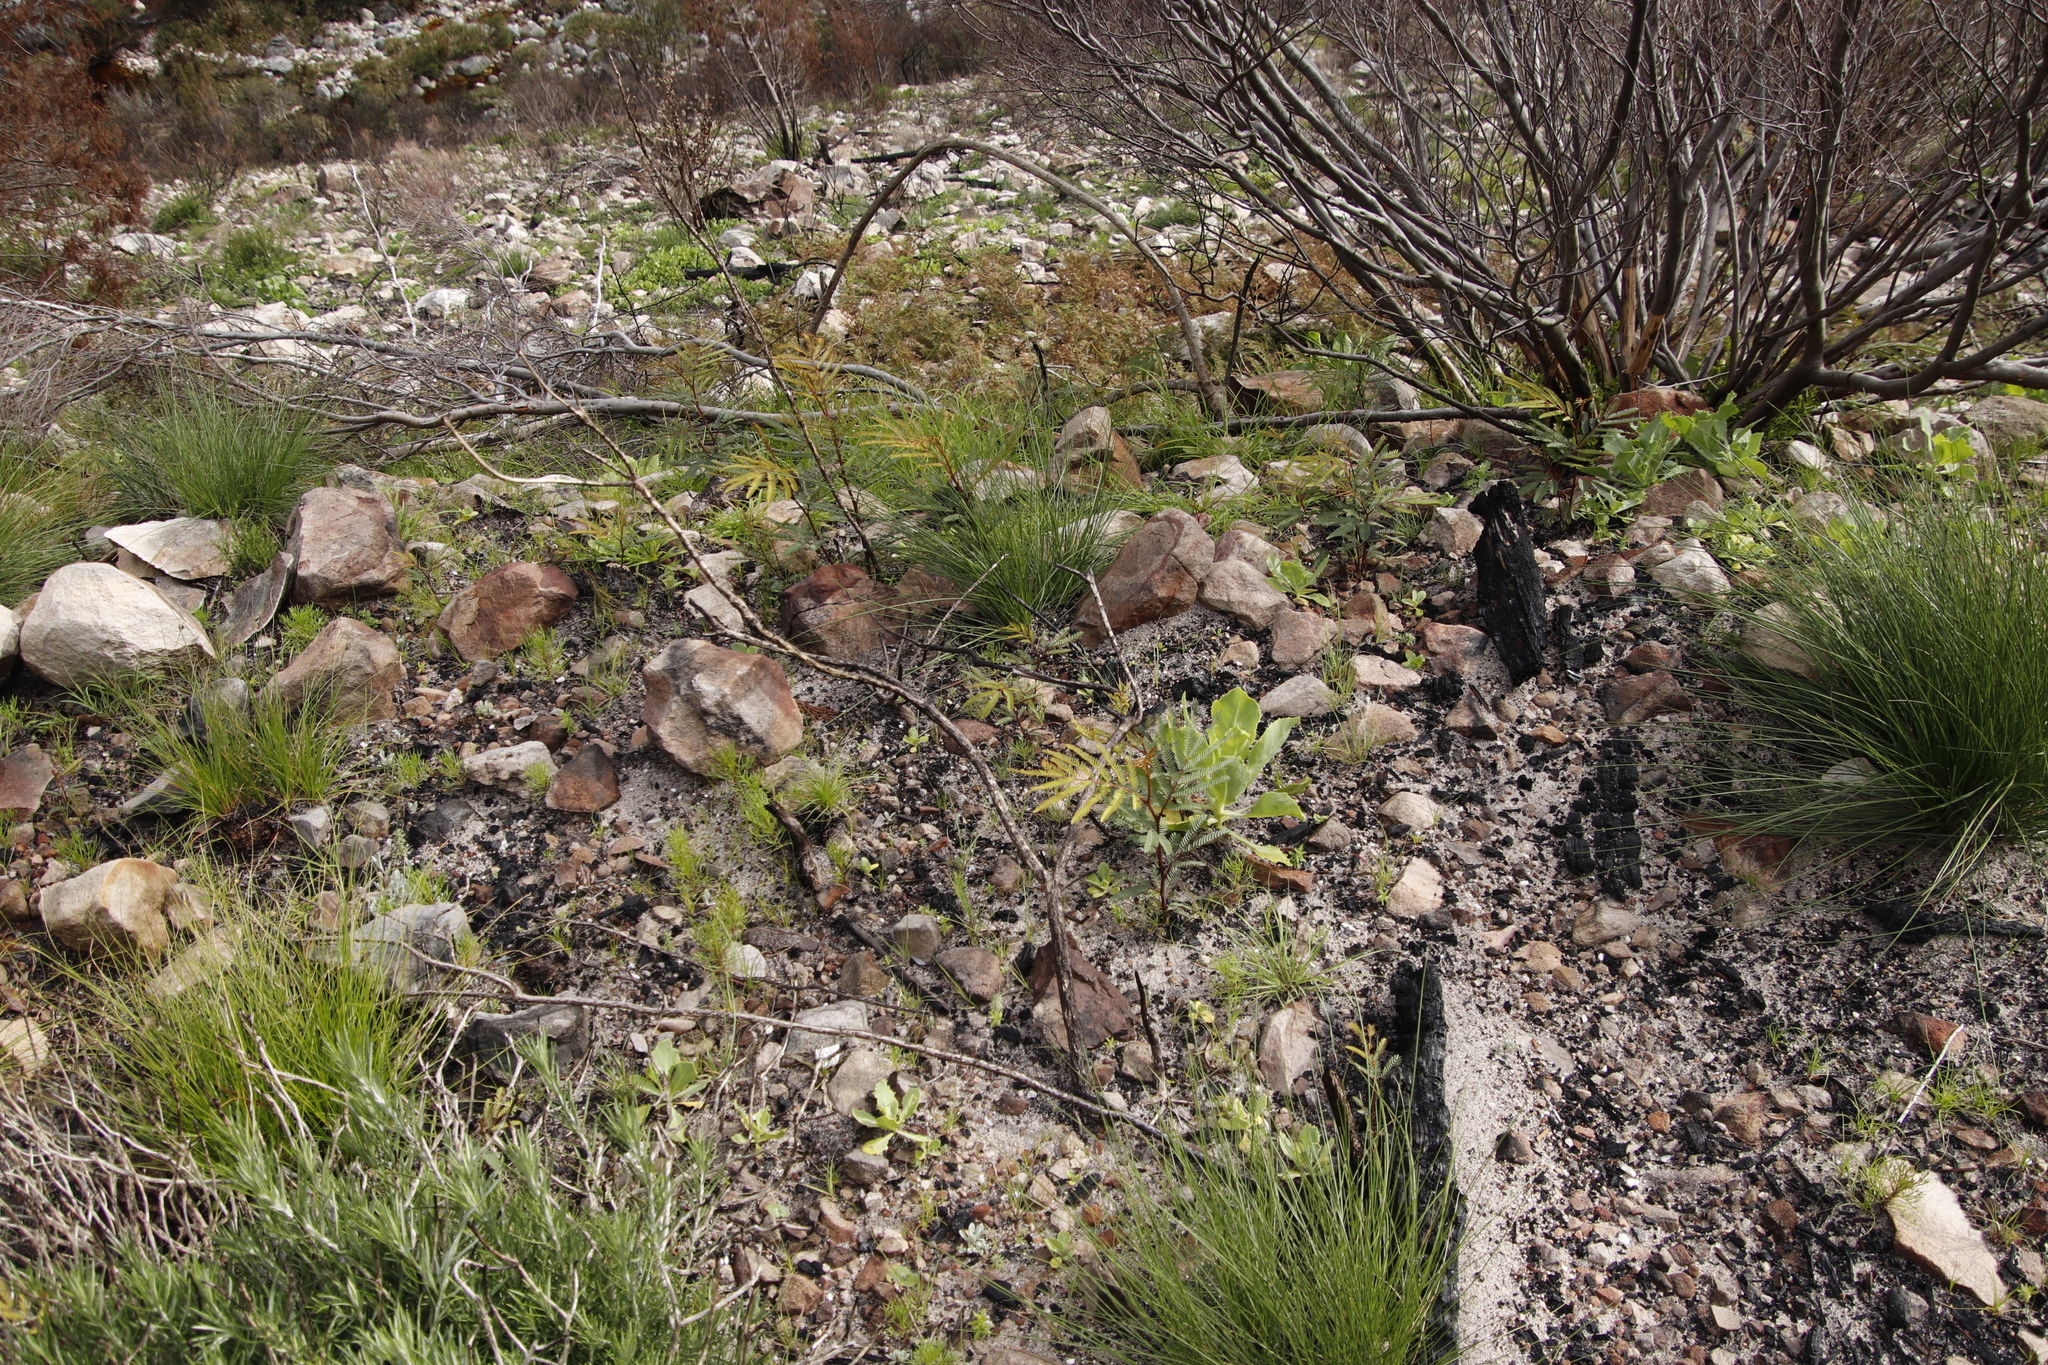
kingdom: Plantae
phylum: Tracheophyta
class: Magnoliopsida
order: Fabales
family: Fabaceae
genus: Paraserianthes
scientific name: Paraserianthes lophantha
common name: Plume albizia
